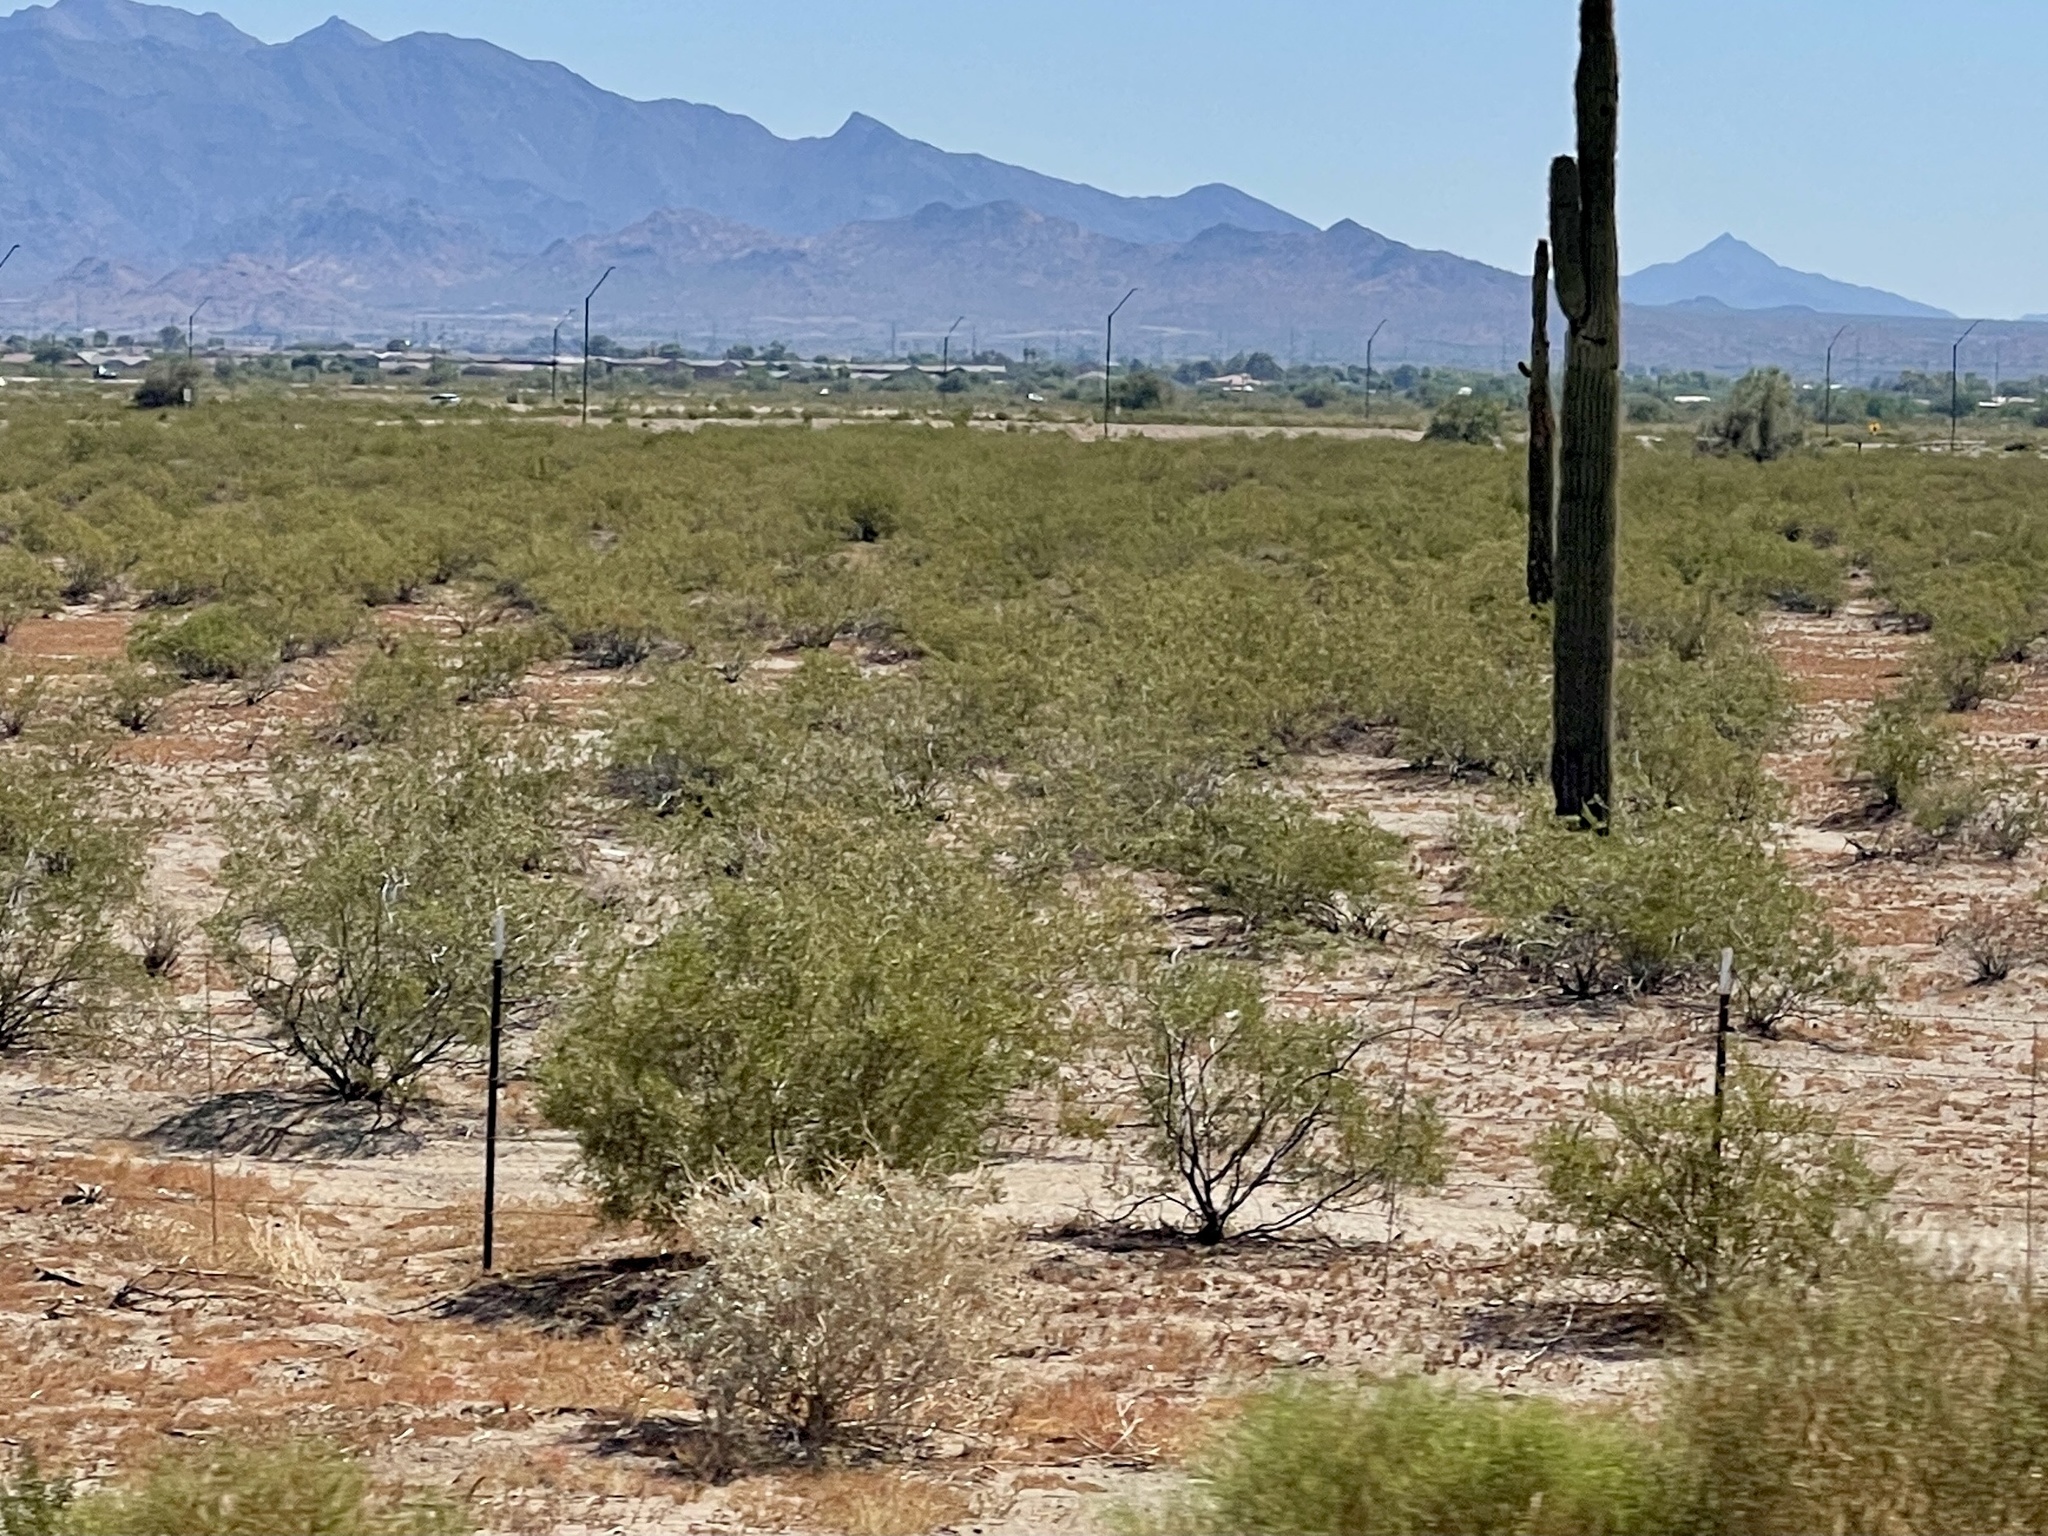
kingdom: Plantae
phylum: Tracheophyta
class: Magnoliopsida
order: Zygophyllales
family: Zygophyllaceae
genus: Larrea
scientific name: Larrea tridentata
